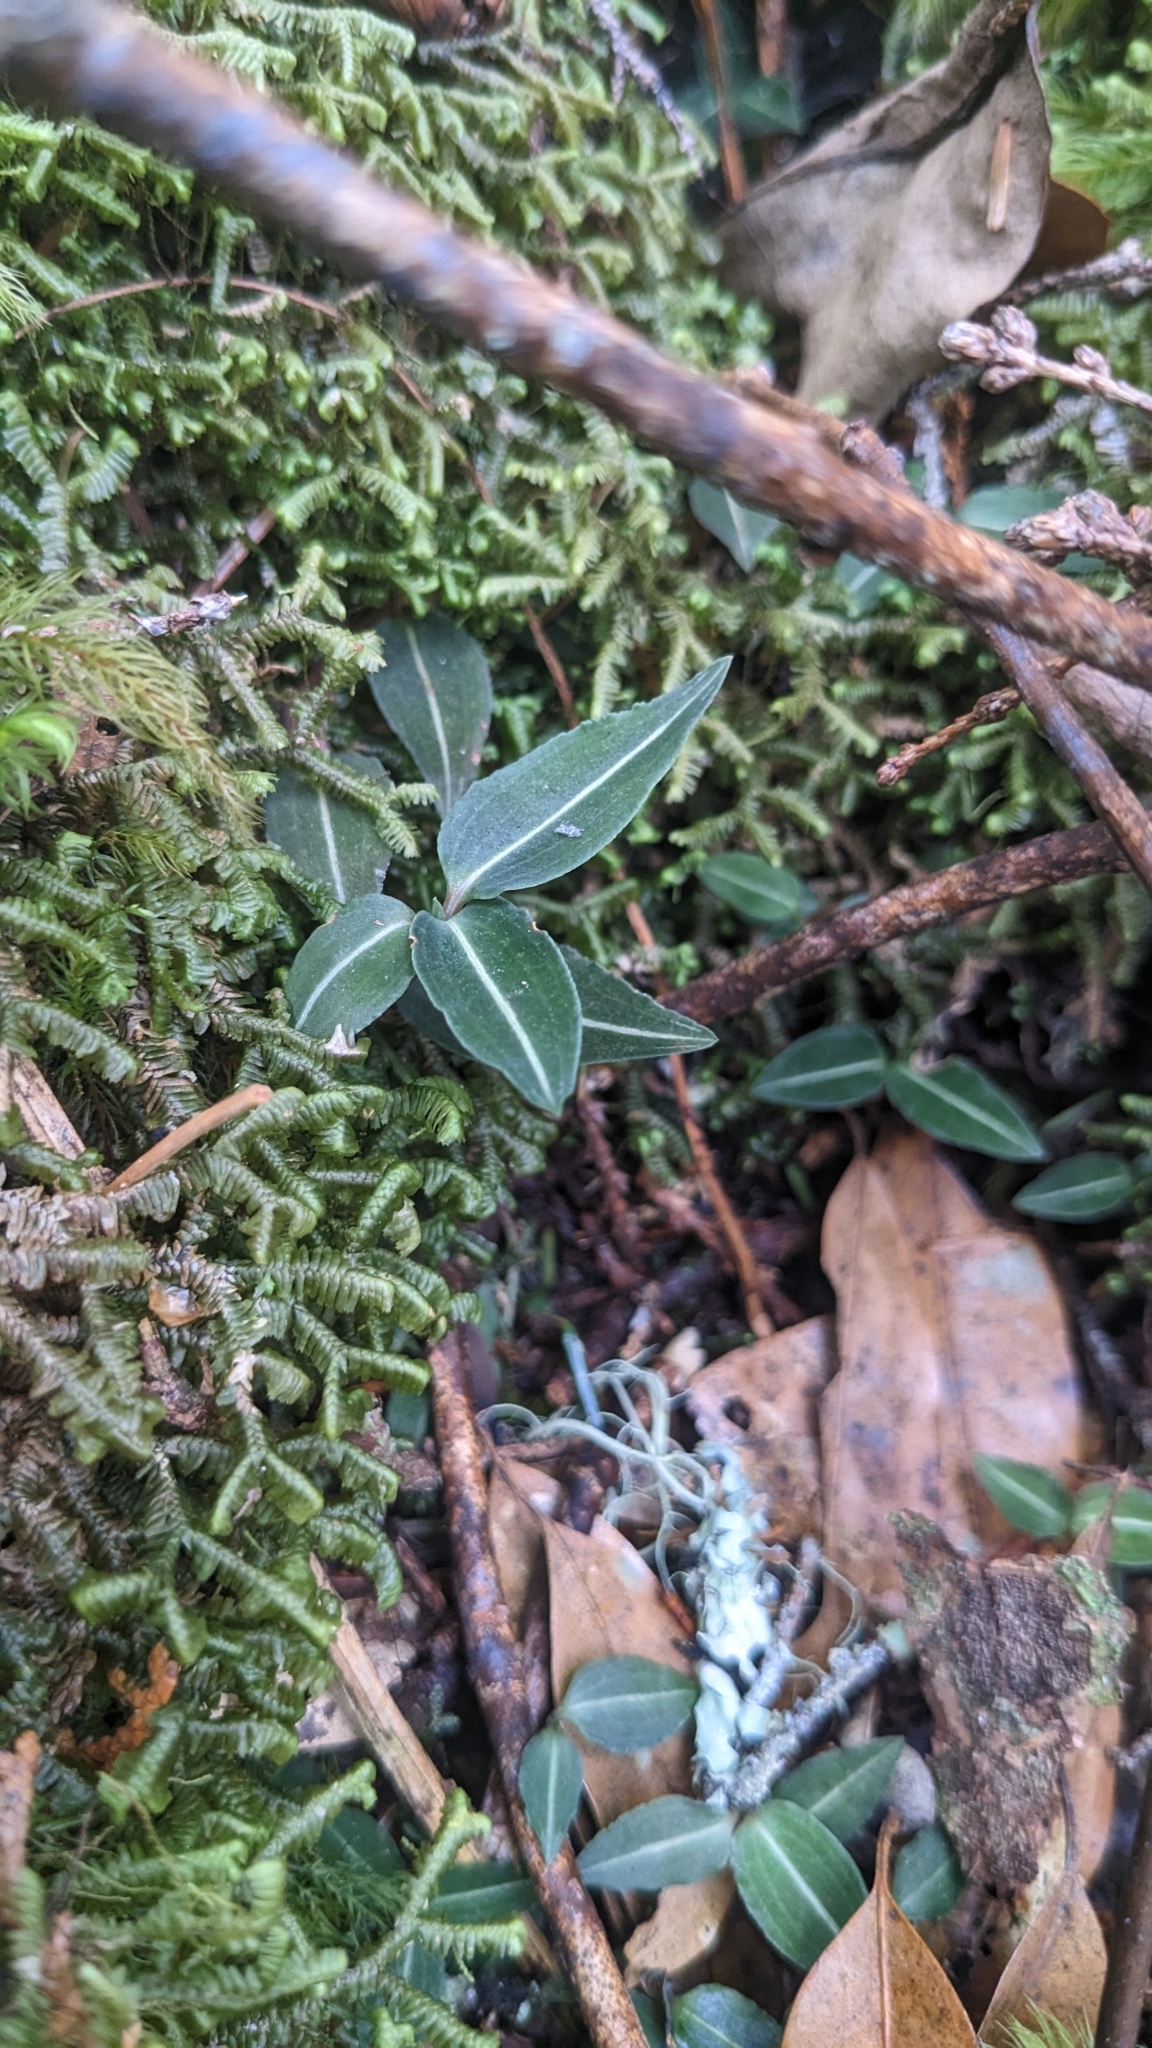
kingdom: Plantae
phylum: Tracheophyta
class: Liliopsida
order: Asparagales
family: Orchidaceae
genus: Goodyera
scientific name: Goodyera velutina
